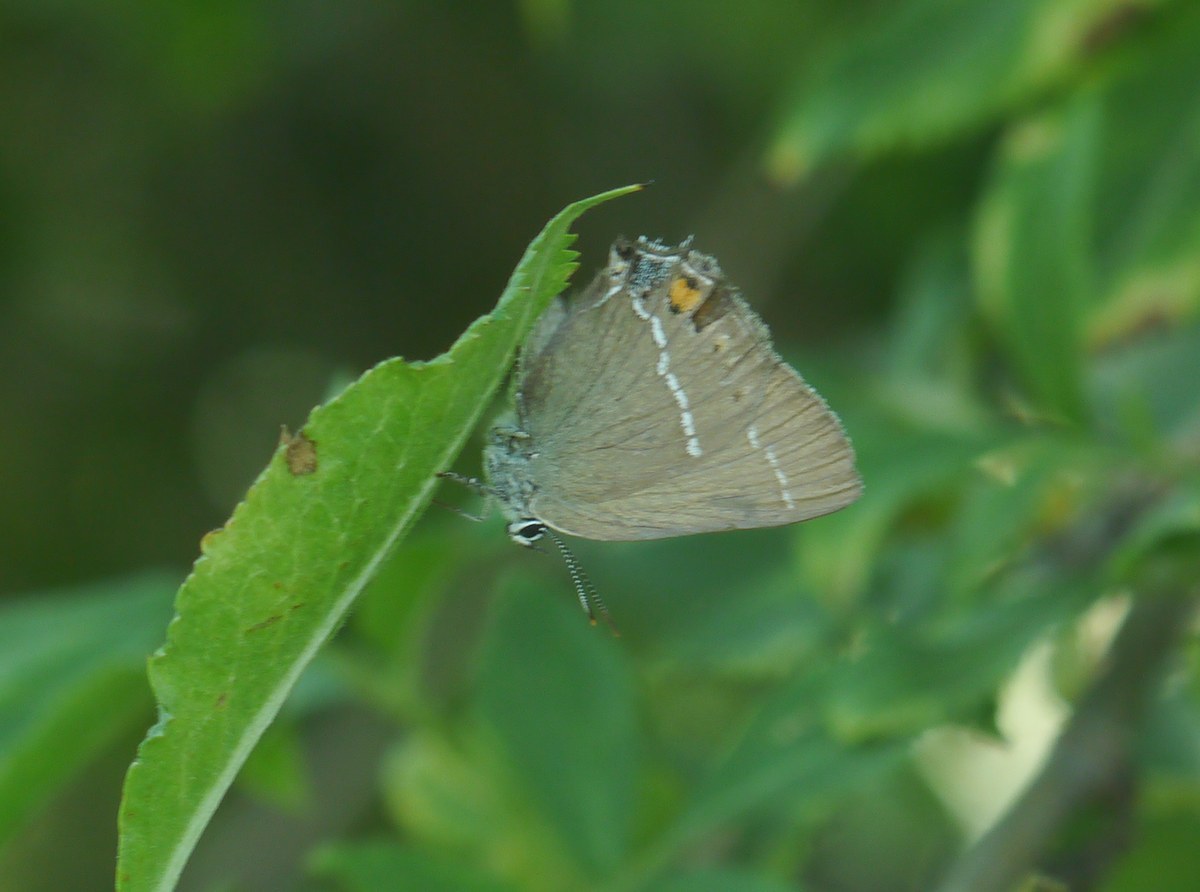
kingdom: Animalia
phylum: Arthropoda
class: Insecta
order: Lepidoptera
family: Lycaenidae
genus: Tuttiola
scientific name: Tuttiola spini
